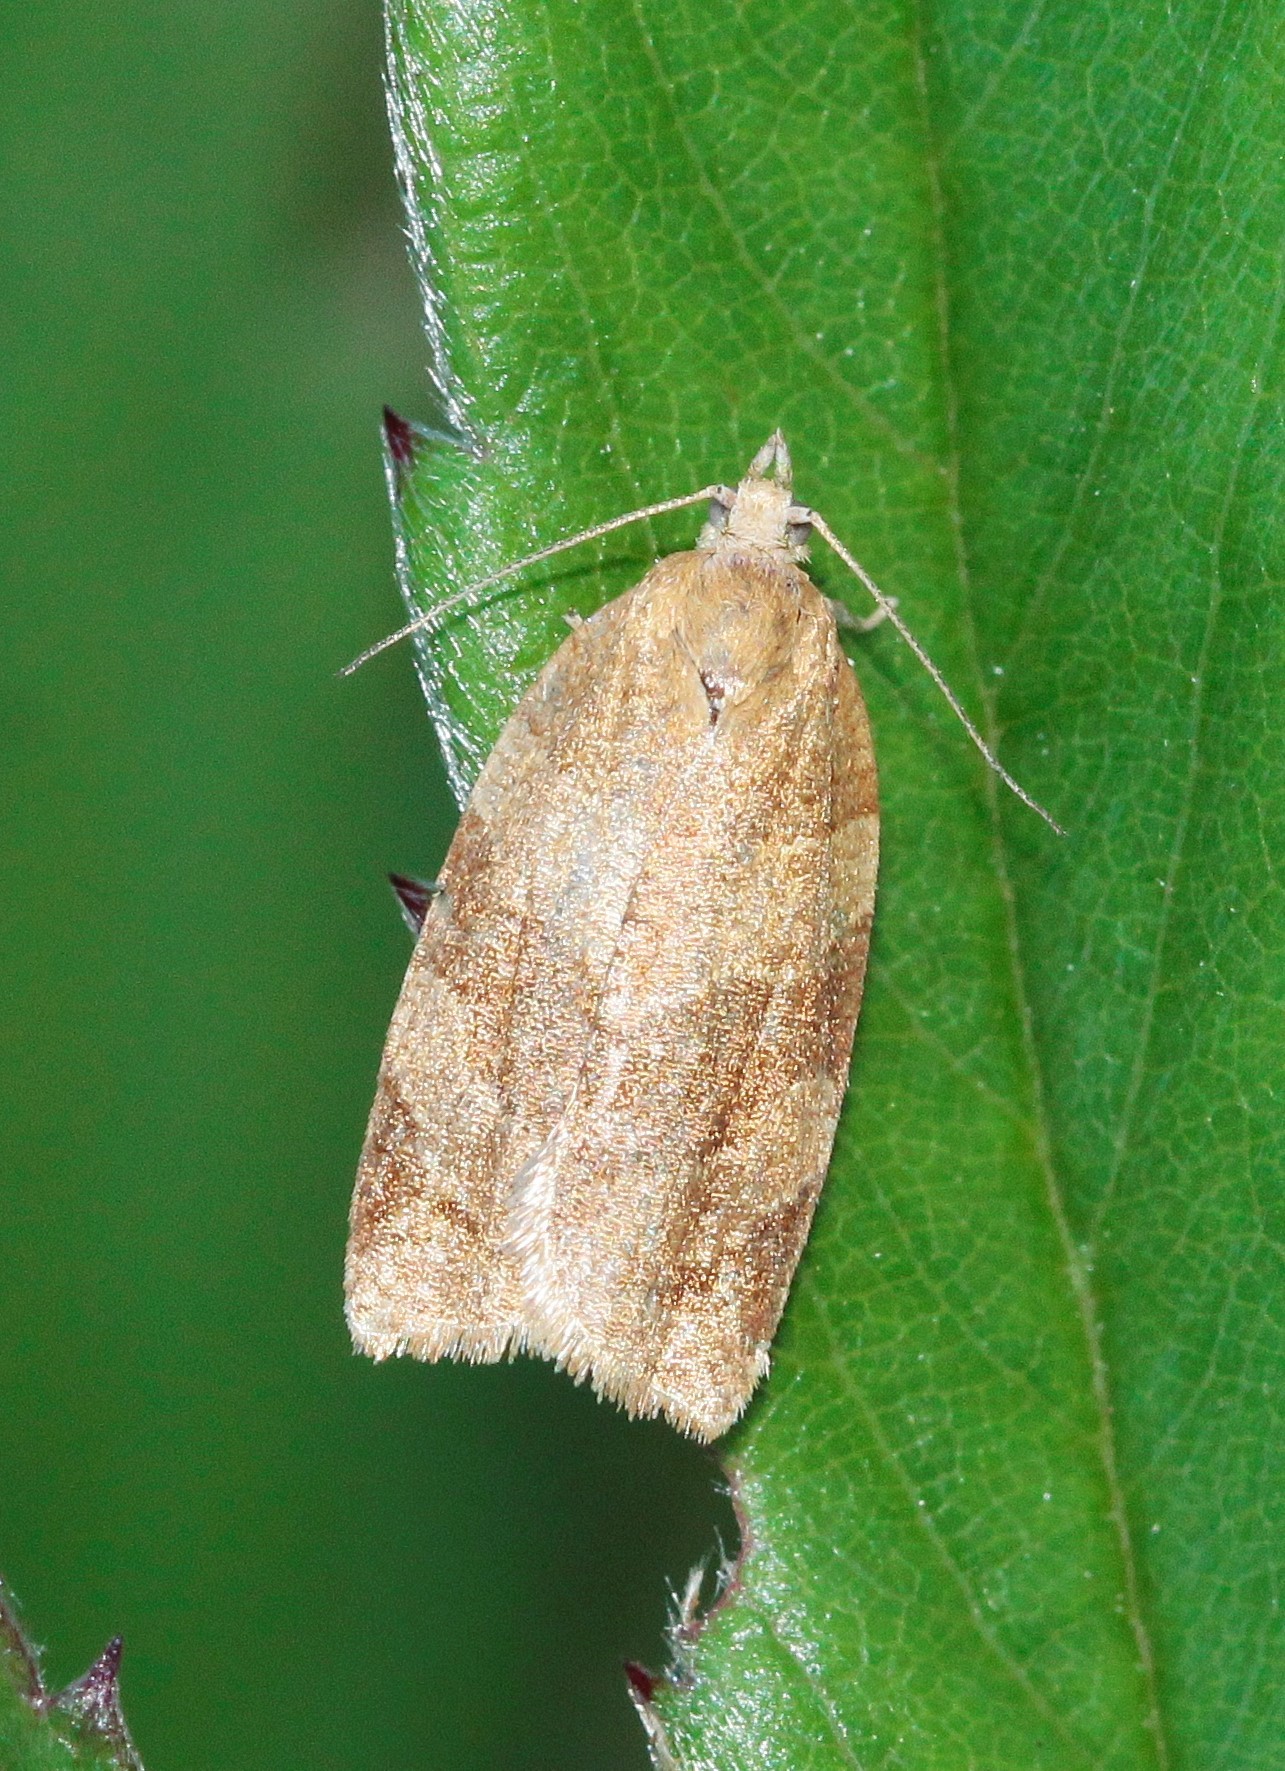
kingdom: Animalia
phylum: Arthropoda
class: Insecta
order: Lepidoptera
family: Tortricidae
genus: Pandemis
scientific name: Pandemis cerasana
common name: Barred fruit-tree tortrix
